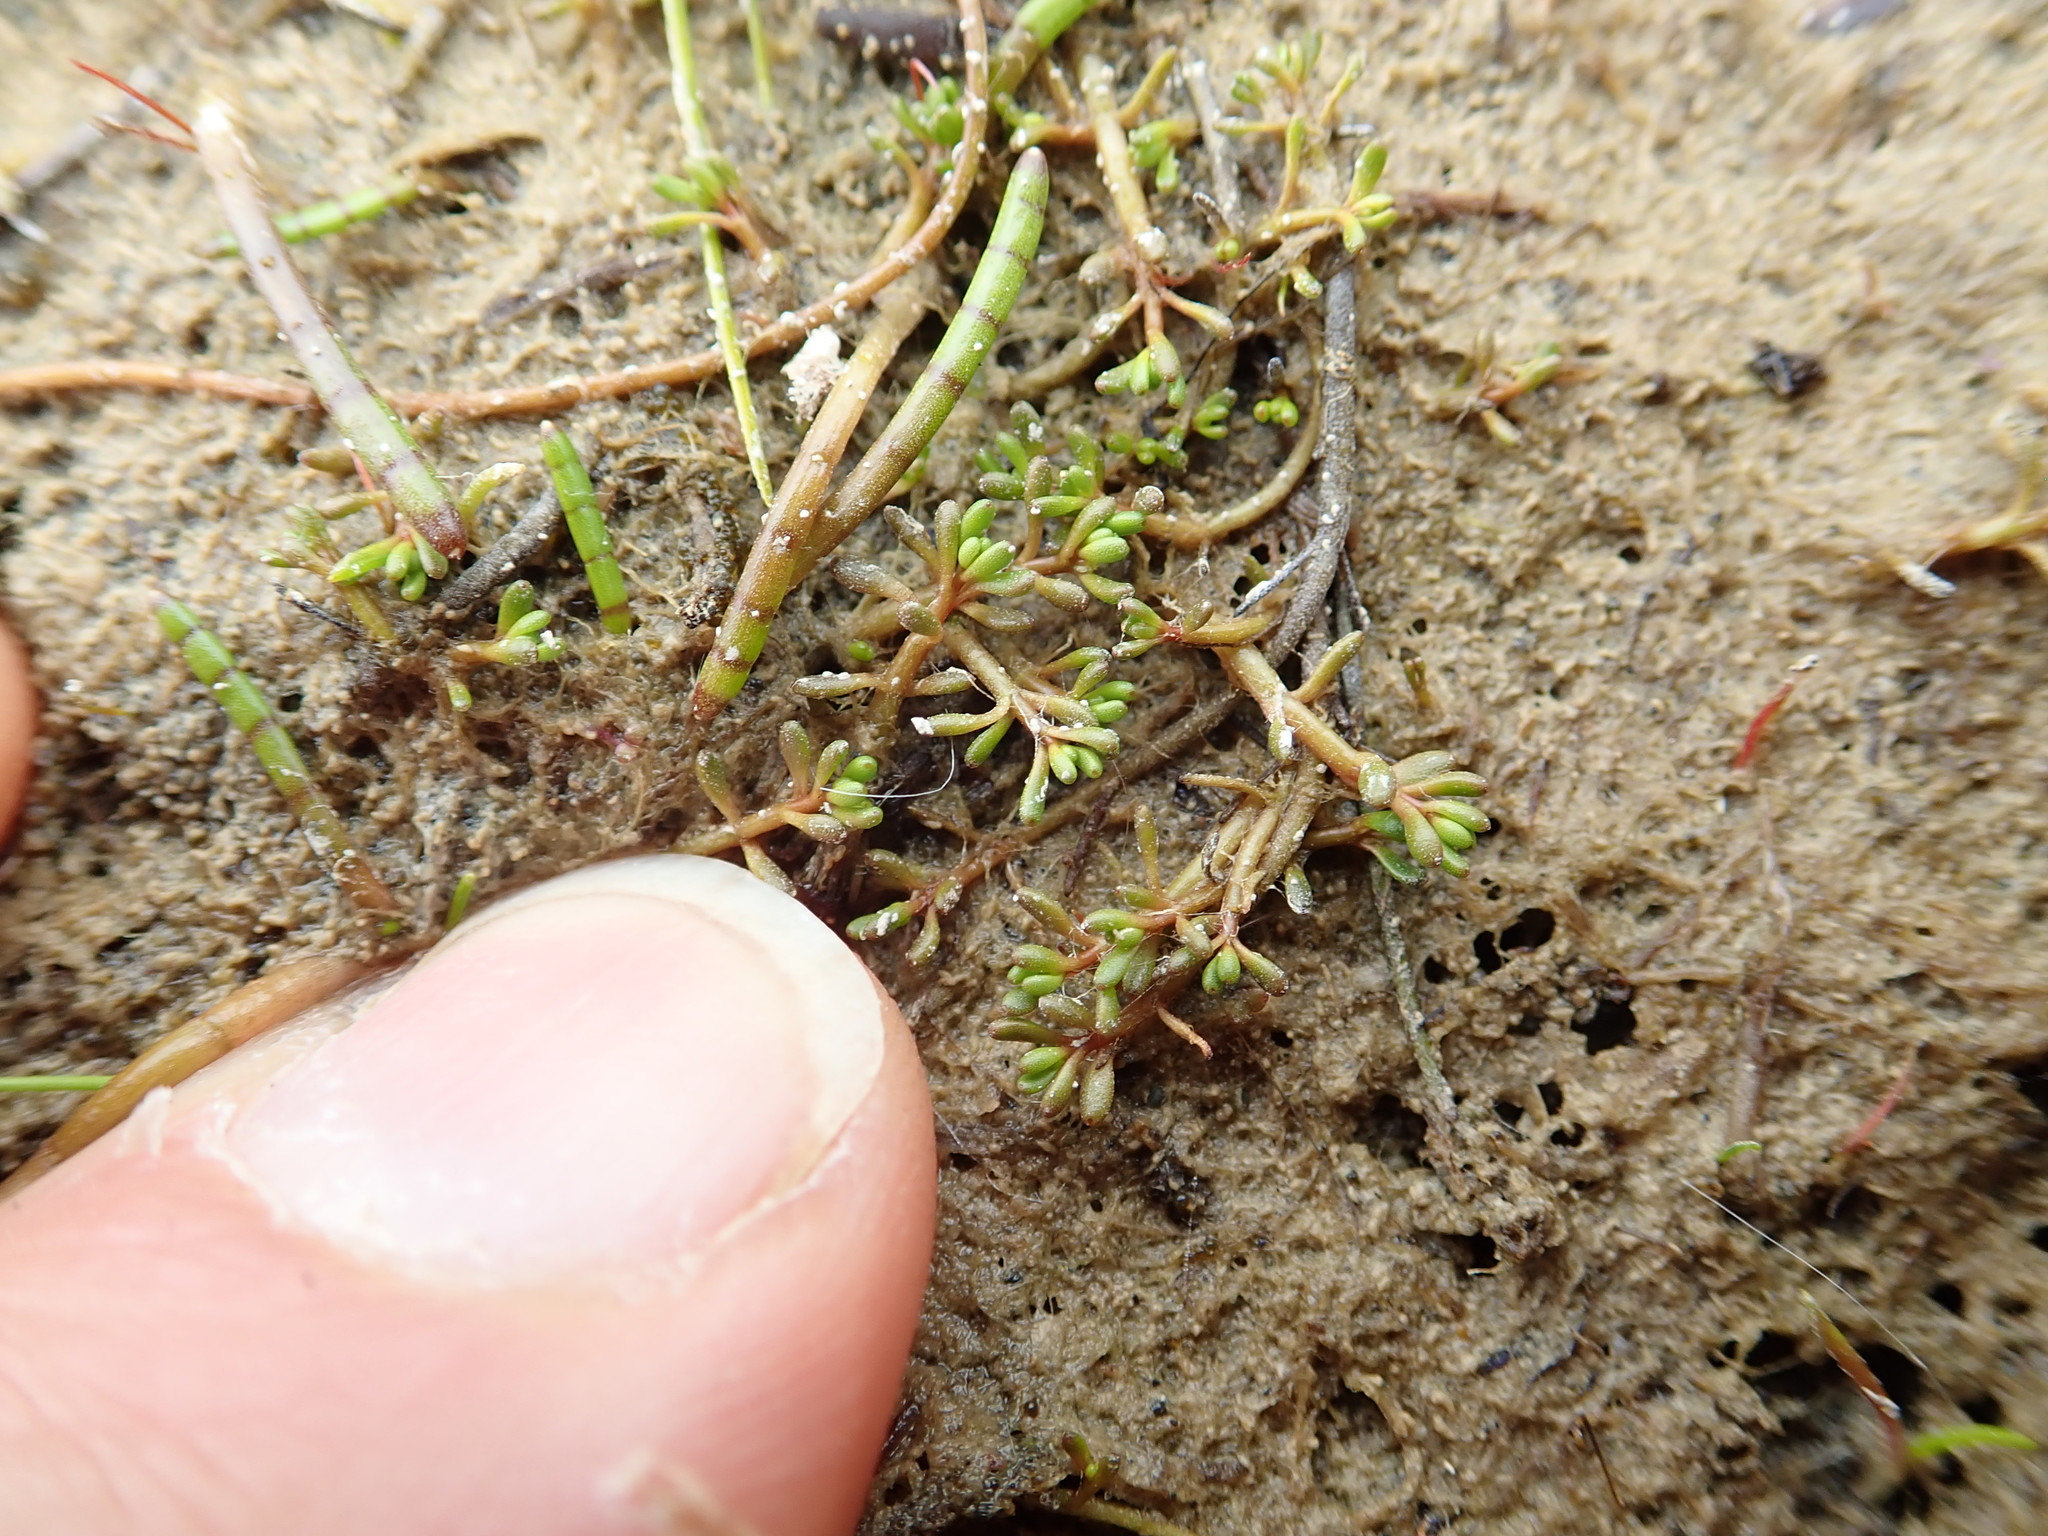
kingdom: Plantae
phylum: Tracheophyta
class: Magnoliopsida
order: Saxifragales
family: Haloragaceae
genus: Myriophyllum
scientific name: Myriophyllum votschii
